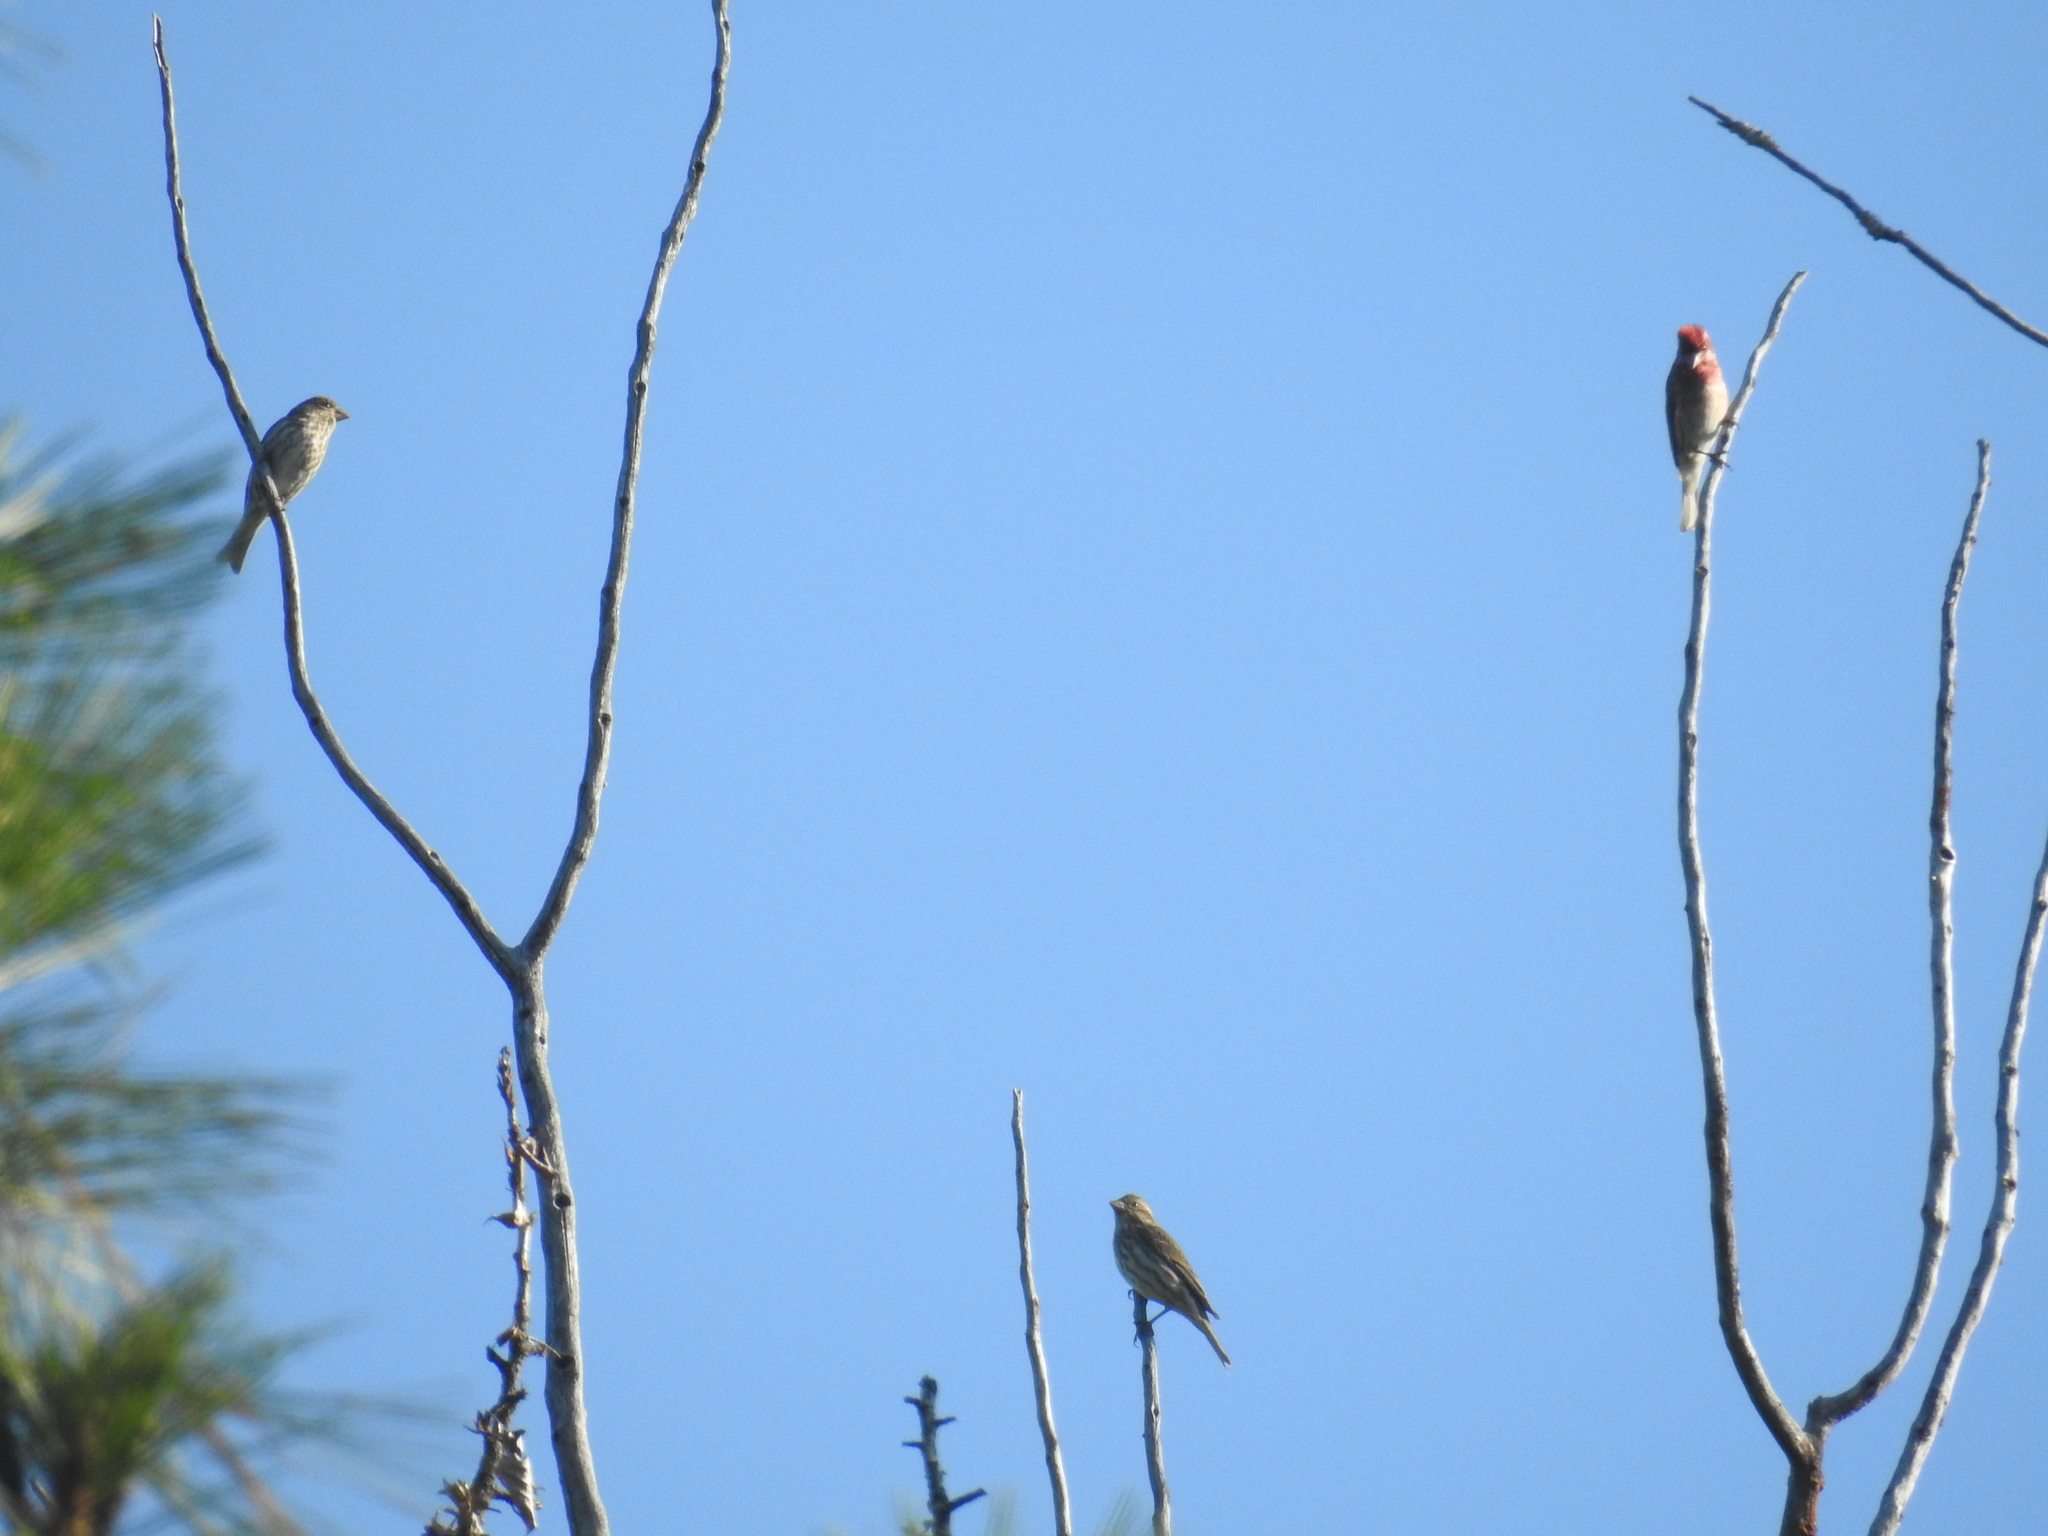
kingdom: Animalia
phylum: Chordata
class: Aves
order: Passeriformes
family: Fringillidae
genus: Haemorhous
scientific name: Haemorhous cassinii
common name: Cassin's finch
